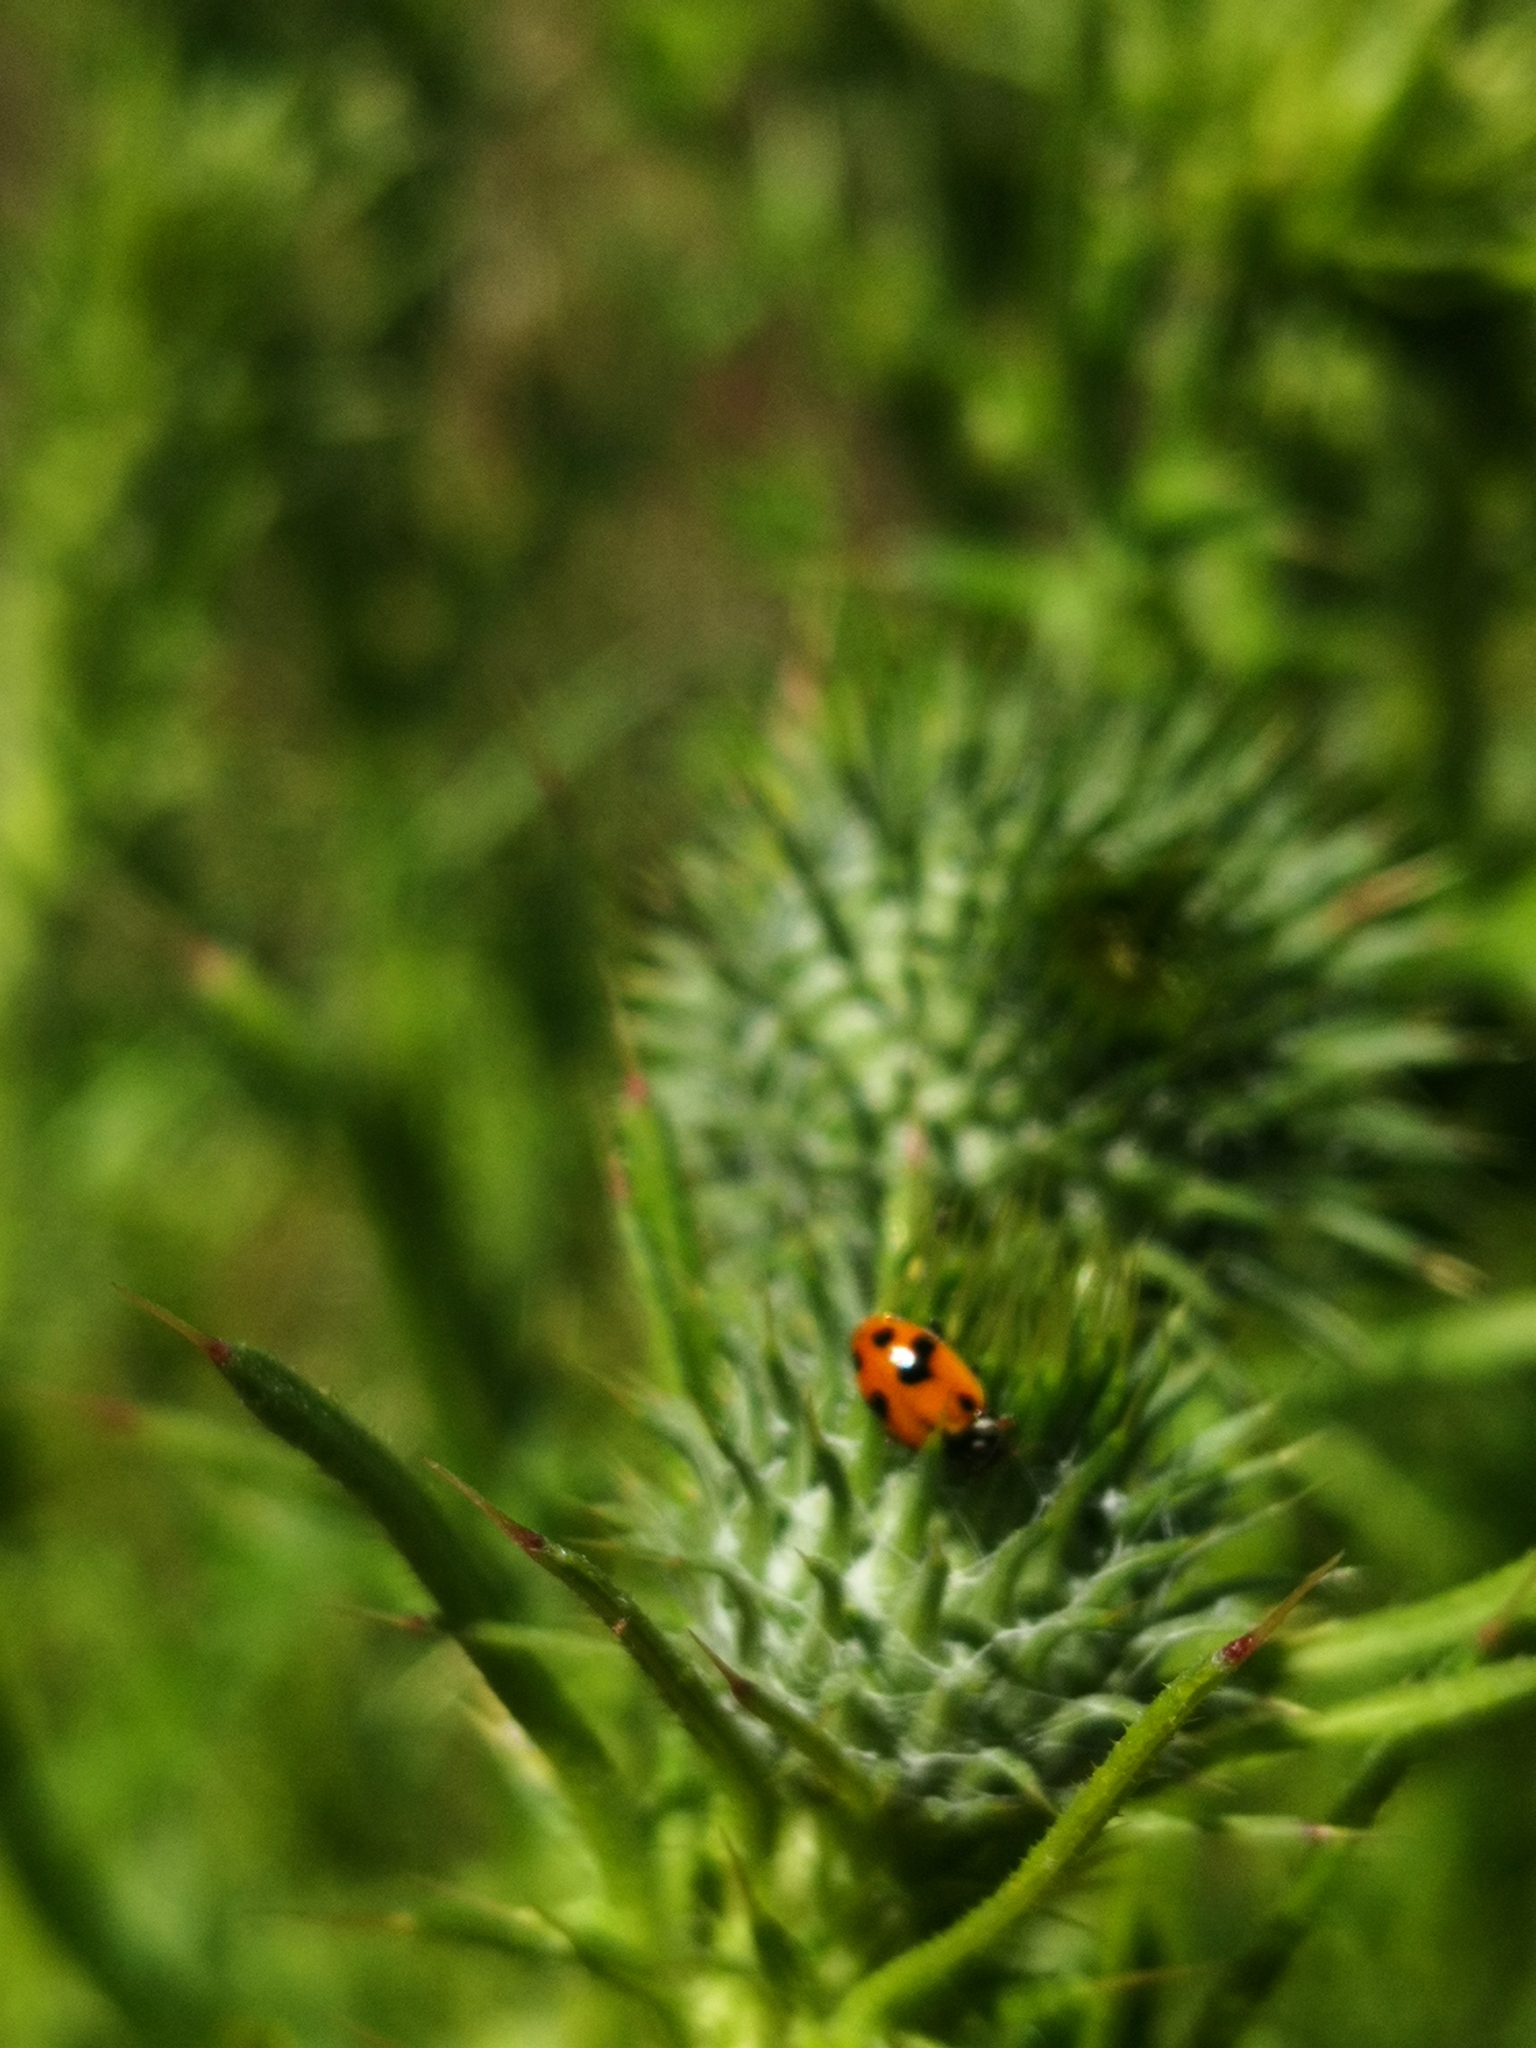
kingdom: Animalia
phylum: Arthropoda
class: Insecta
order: Coleoptera
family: Coccinellidae
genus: Hippodamia
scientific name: Hippodamia variegata
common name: Ladybird beetle
